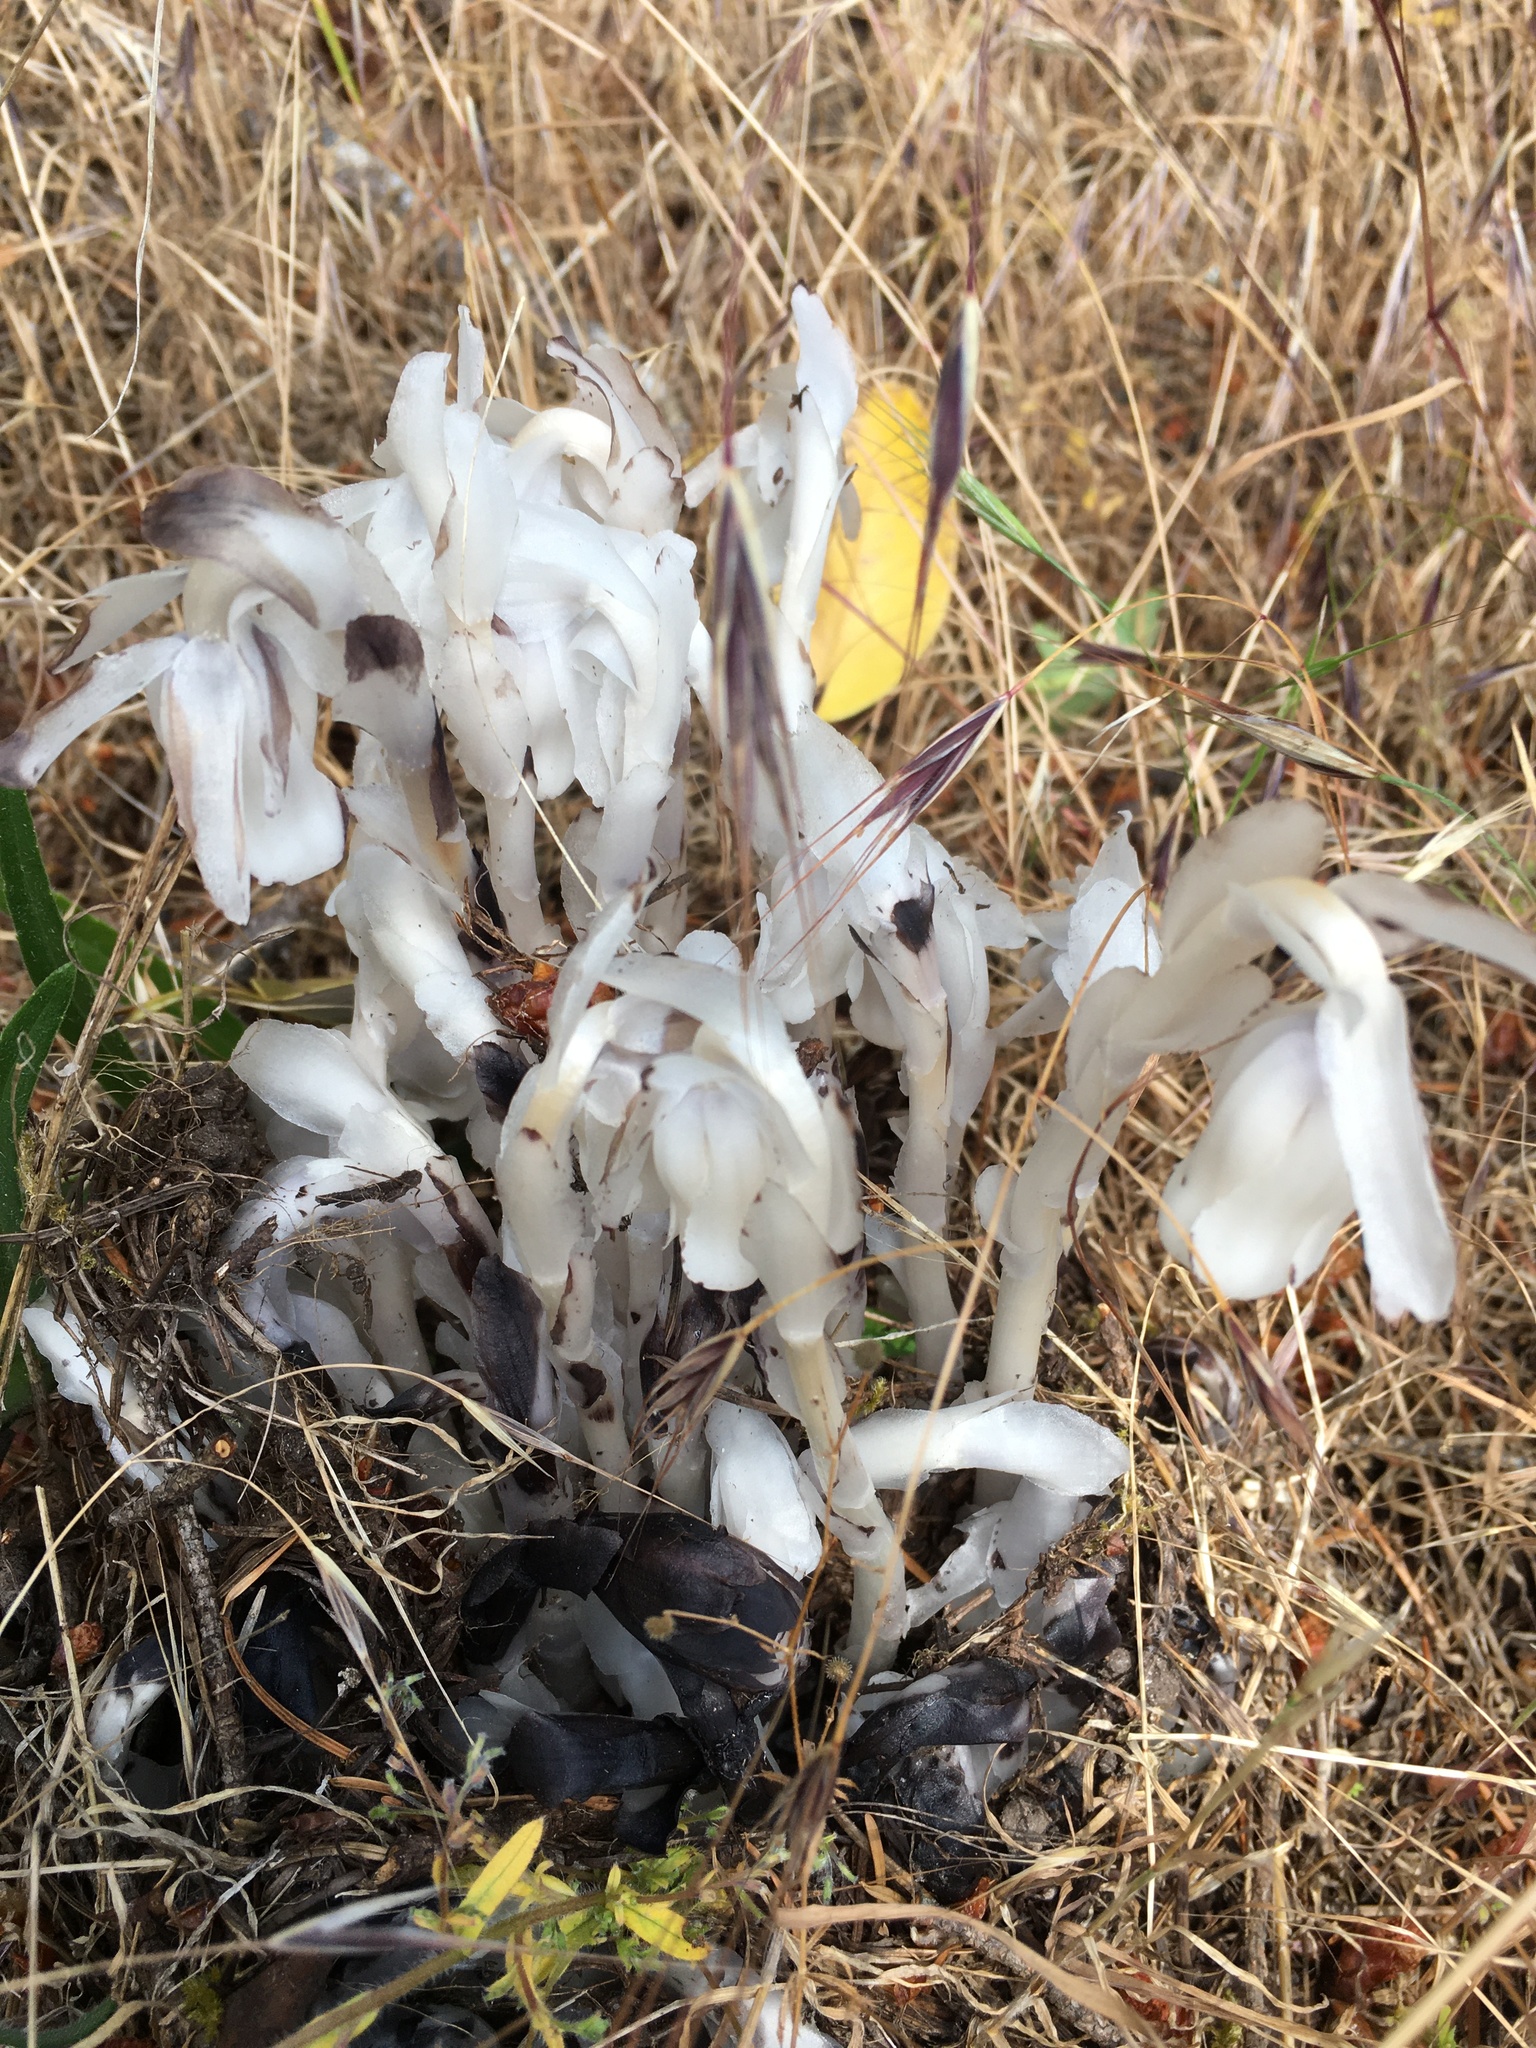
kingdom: Plantae
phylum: Tracheophyta
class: Magnoliopsida
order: Ericales
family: Ericaceae
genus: Monotropa
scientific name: Monotropa uniflora
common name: Convulsion root
